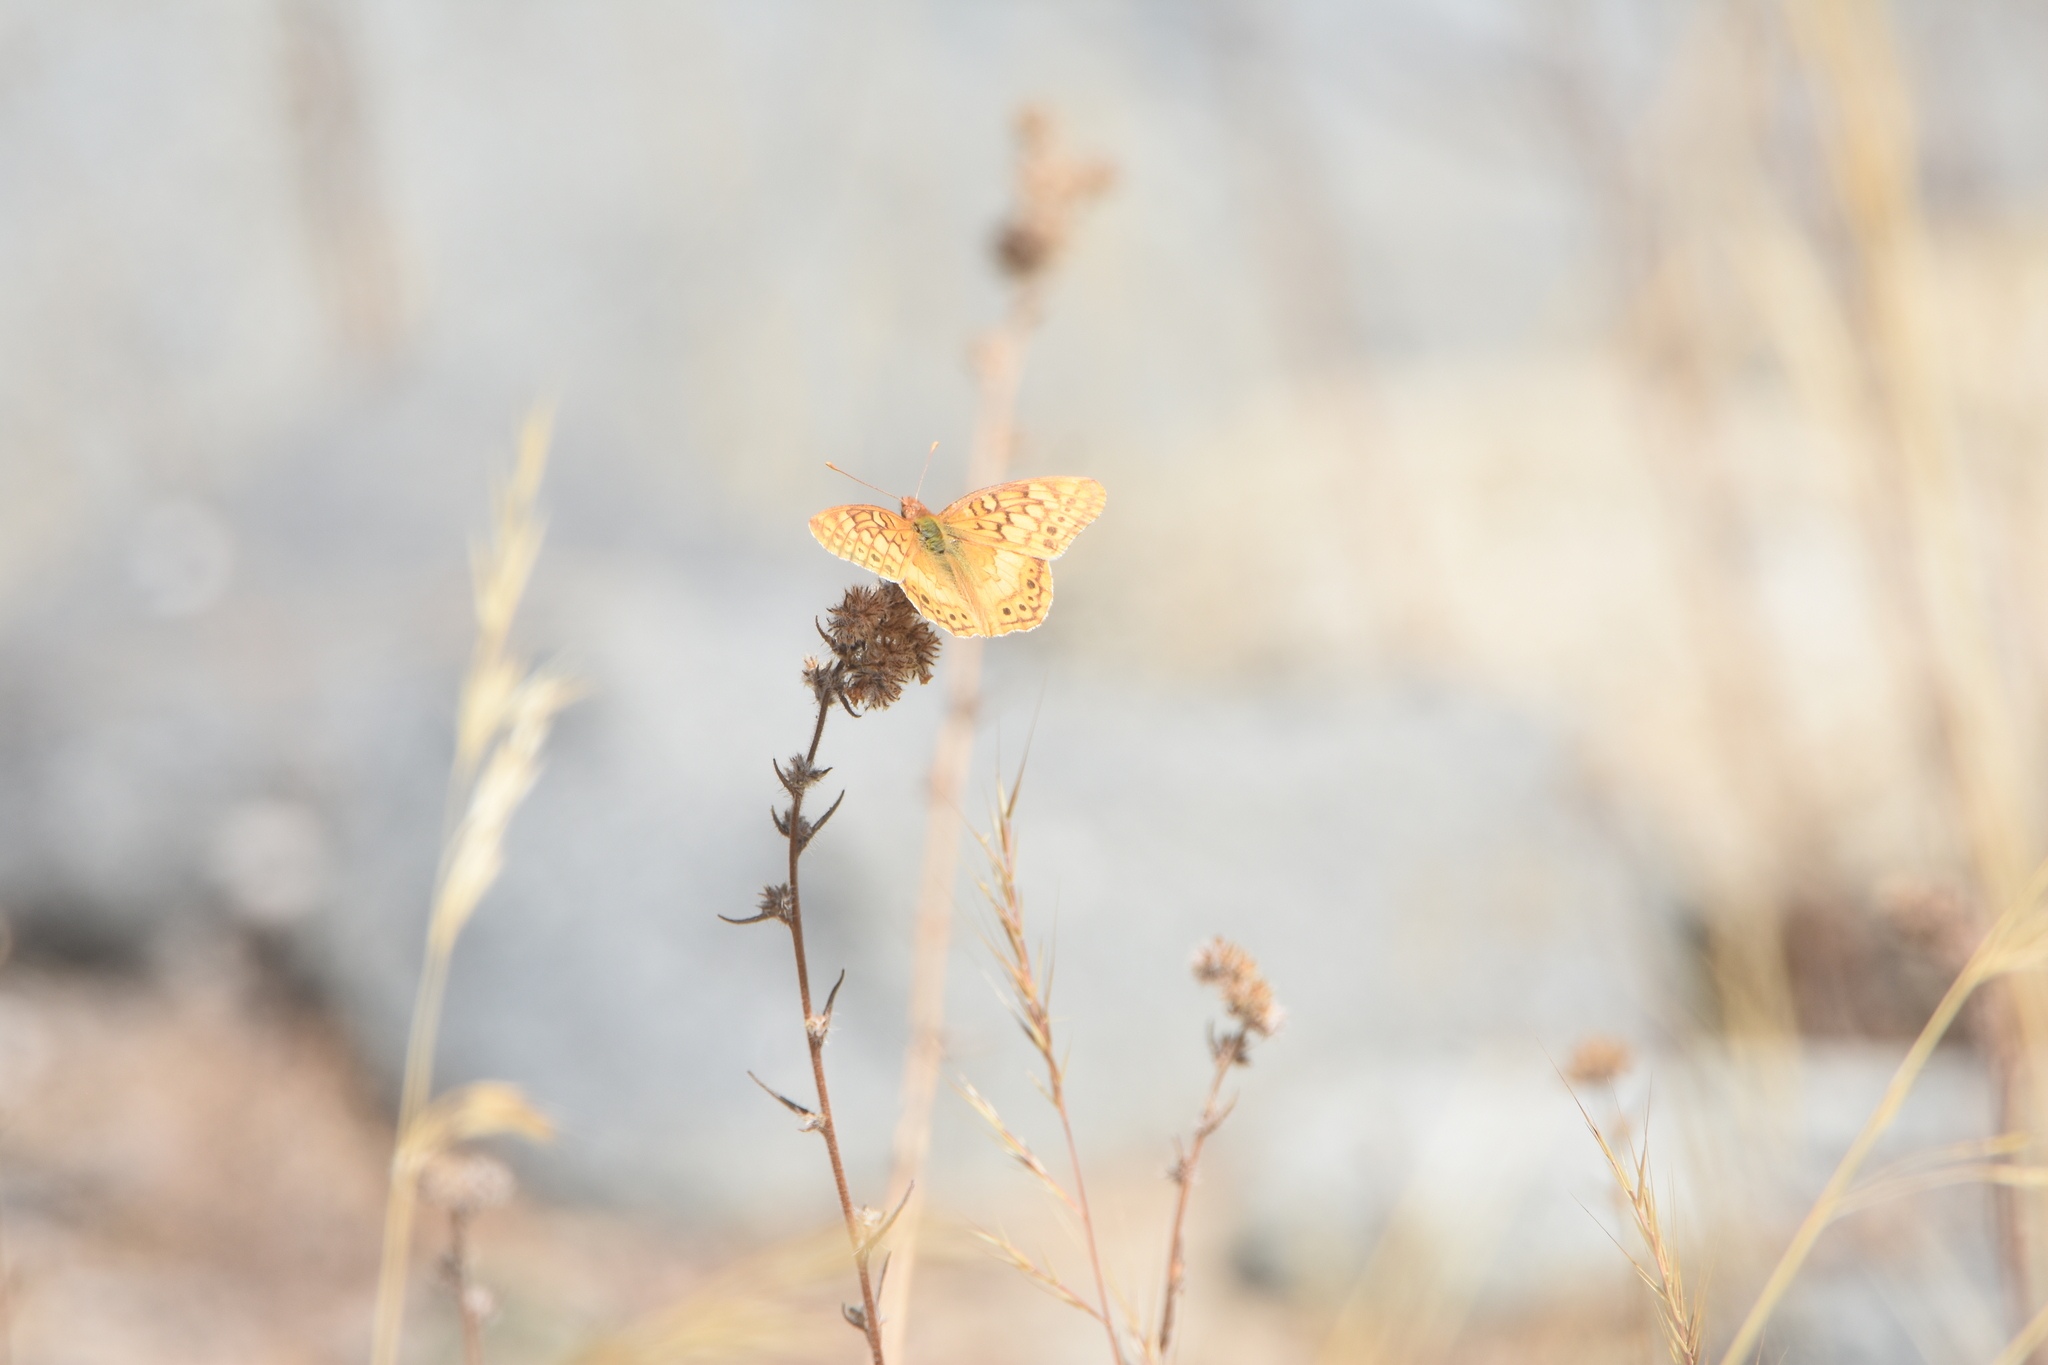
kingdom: Animalia
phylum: Arthropoda
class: Insecta
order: Lepidoptera
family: Nymphalidae
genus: Euptoieta
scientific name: Euptoieta hortensia
